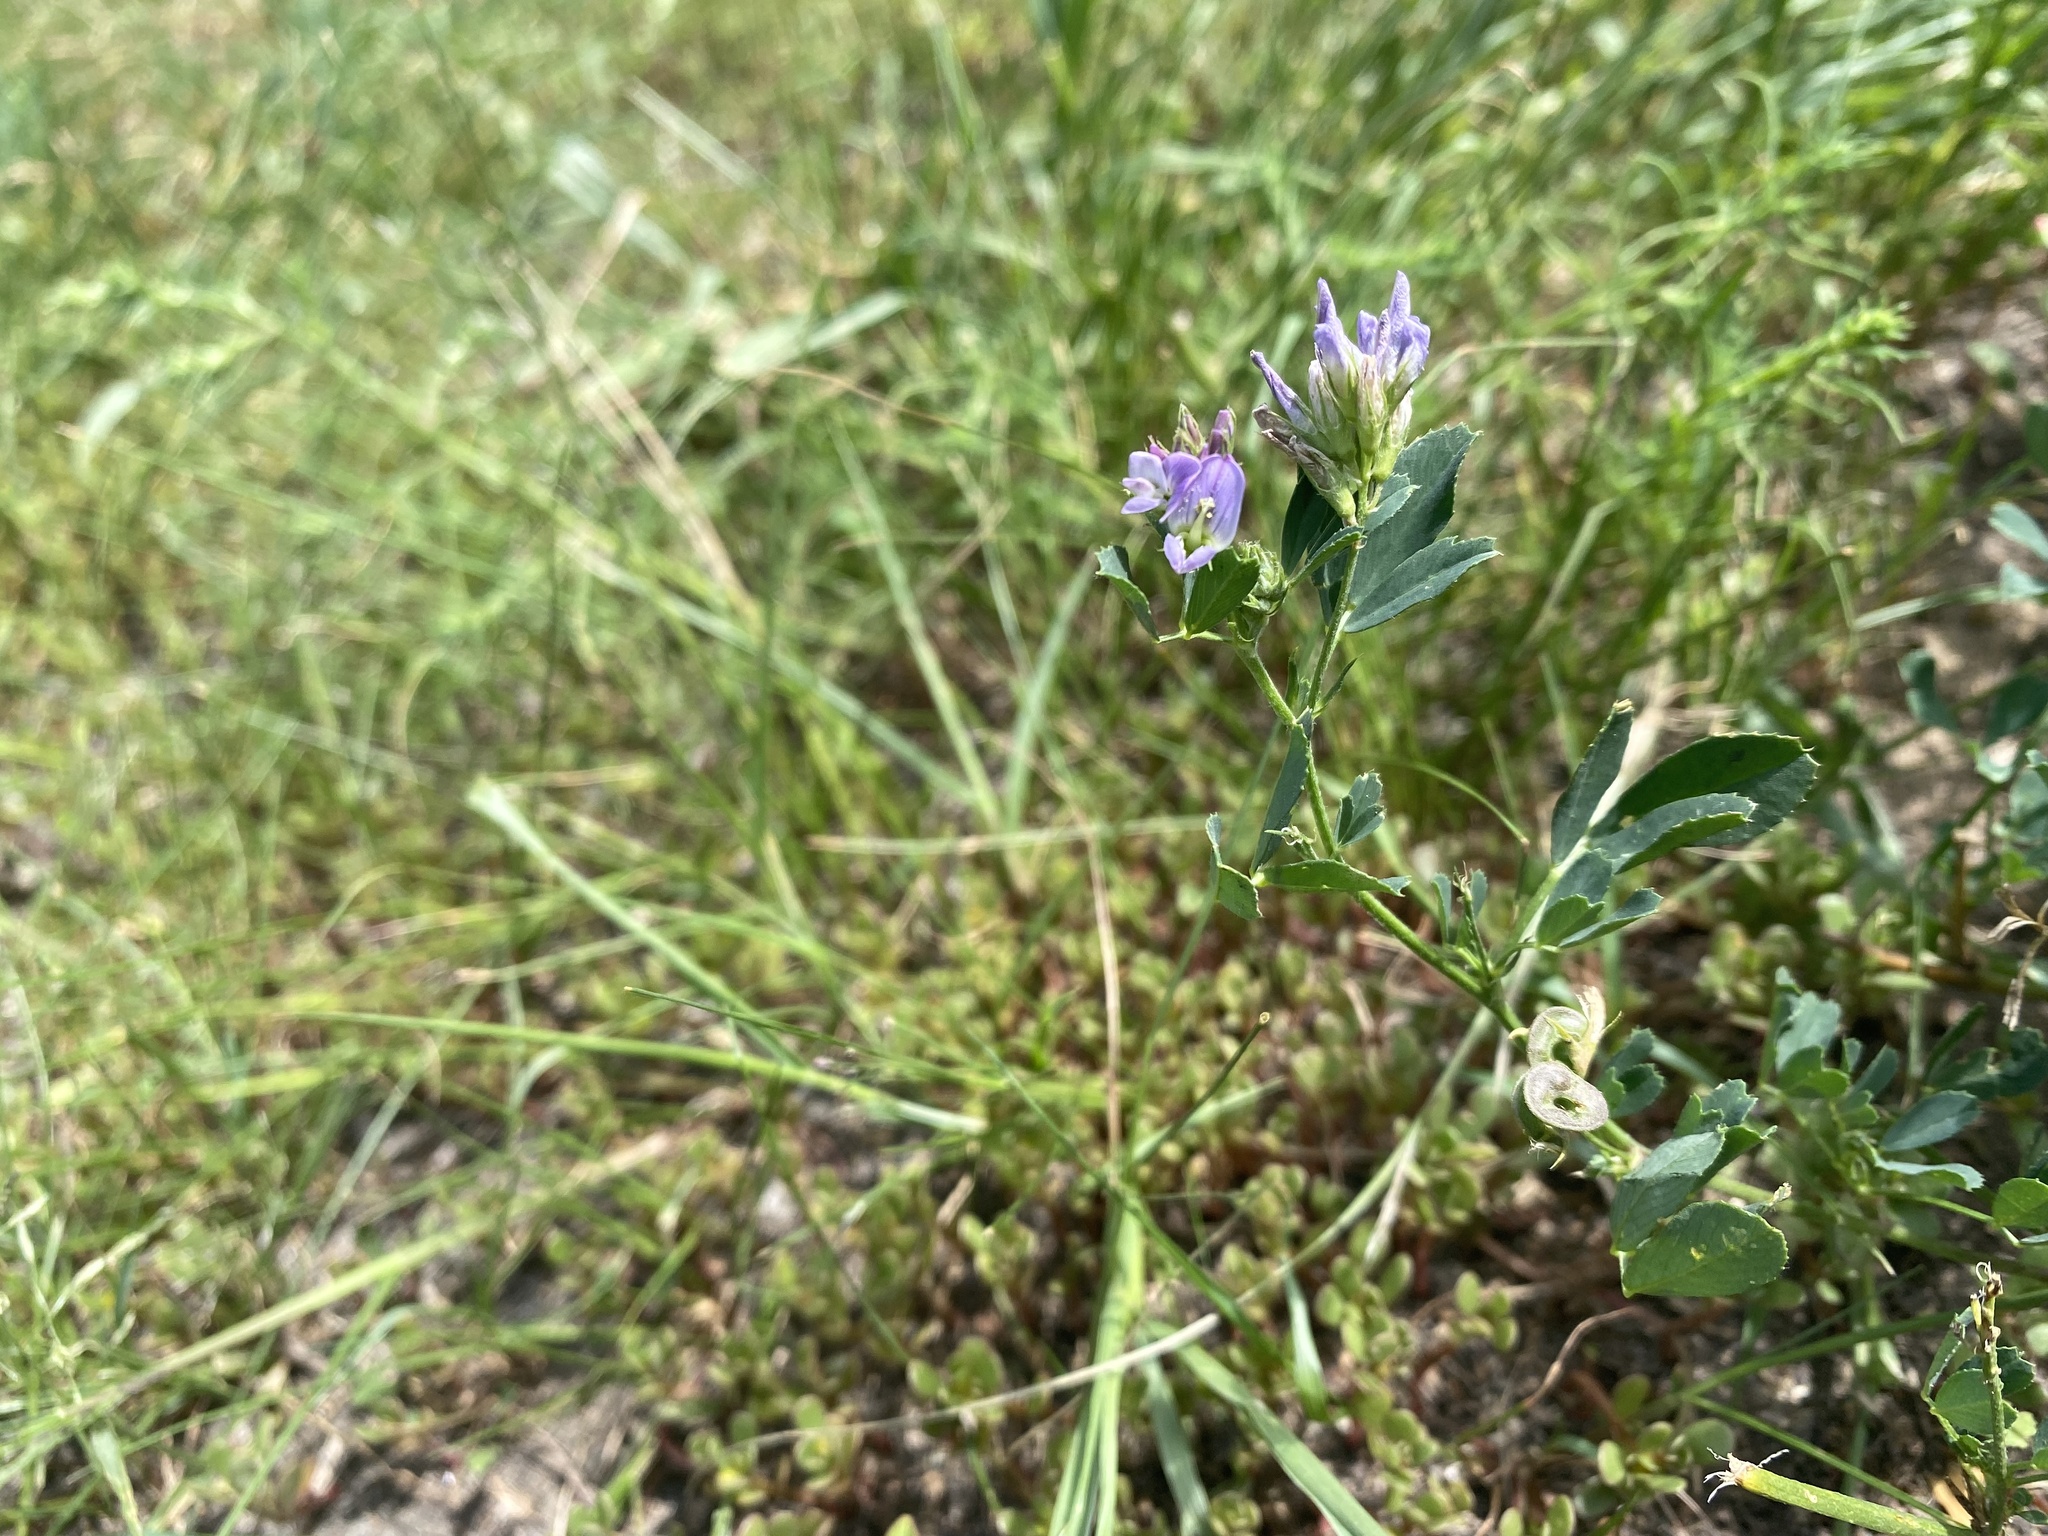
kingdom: Plantae
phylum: Tracheophyta
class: Magnoliopsida
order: Fabales
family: Fabaceae
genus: Medicago
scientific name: Medicago sativa
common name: Alfalfa
